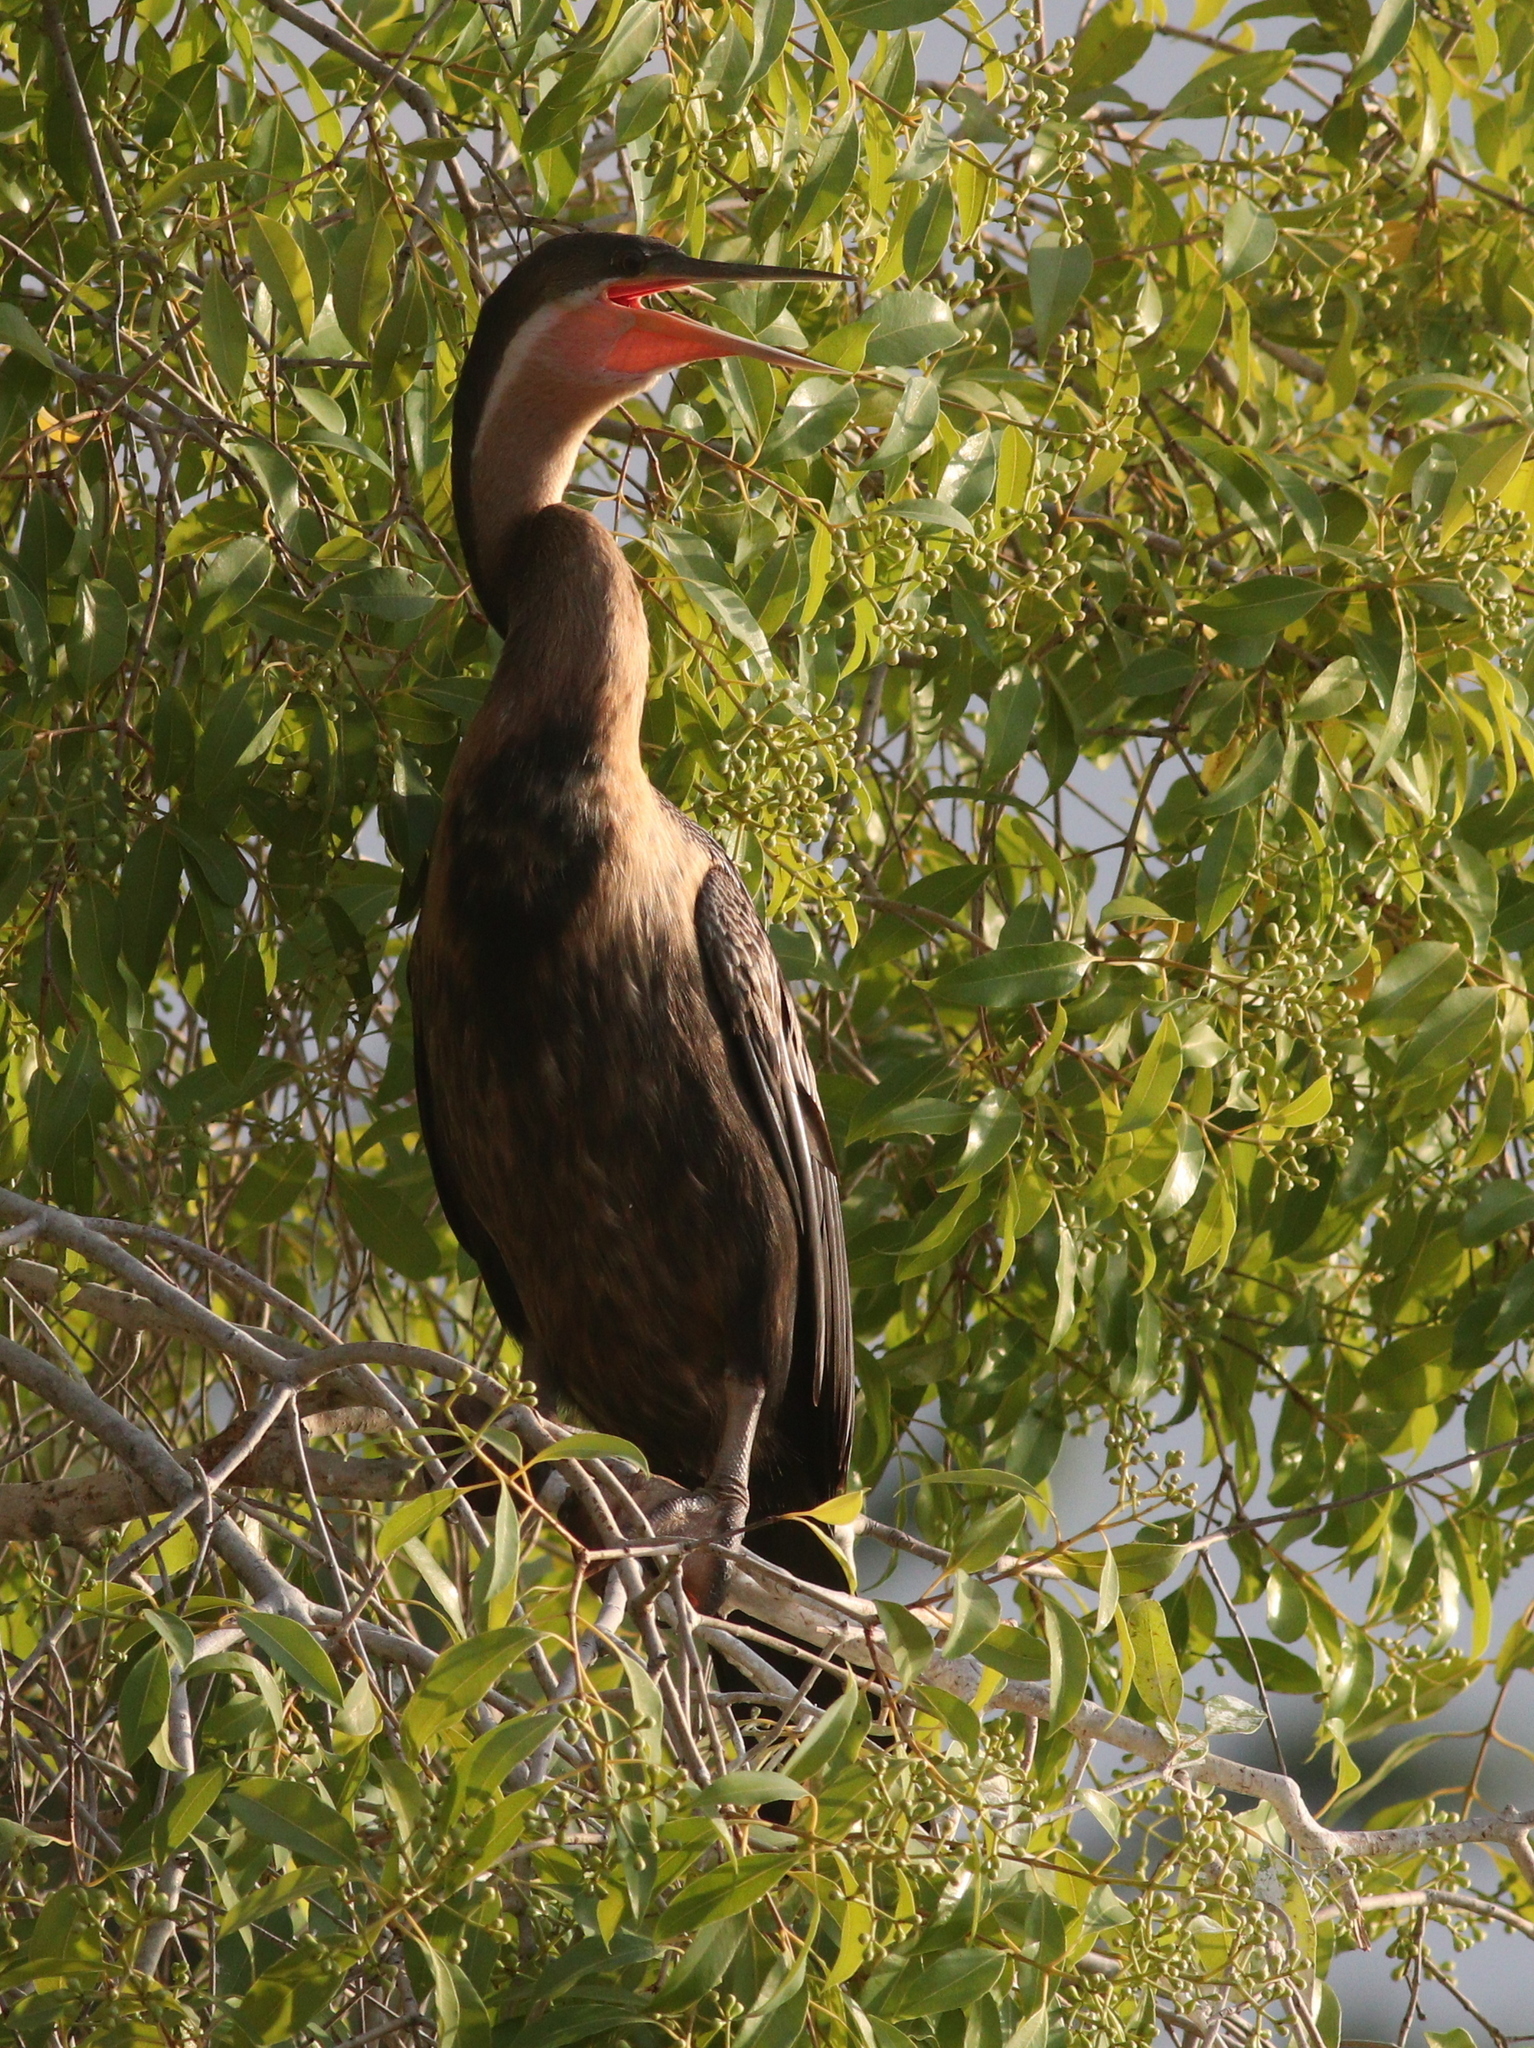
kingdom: Animalia
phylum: Chordata
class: Aves
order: Suliformes
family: Anhingidae
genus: Anhinga
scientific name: Anhinga rufa
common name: African darter
